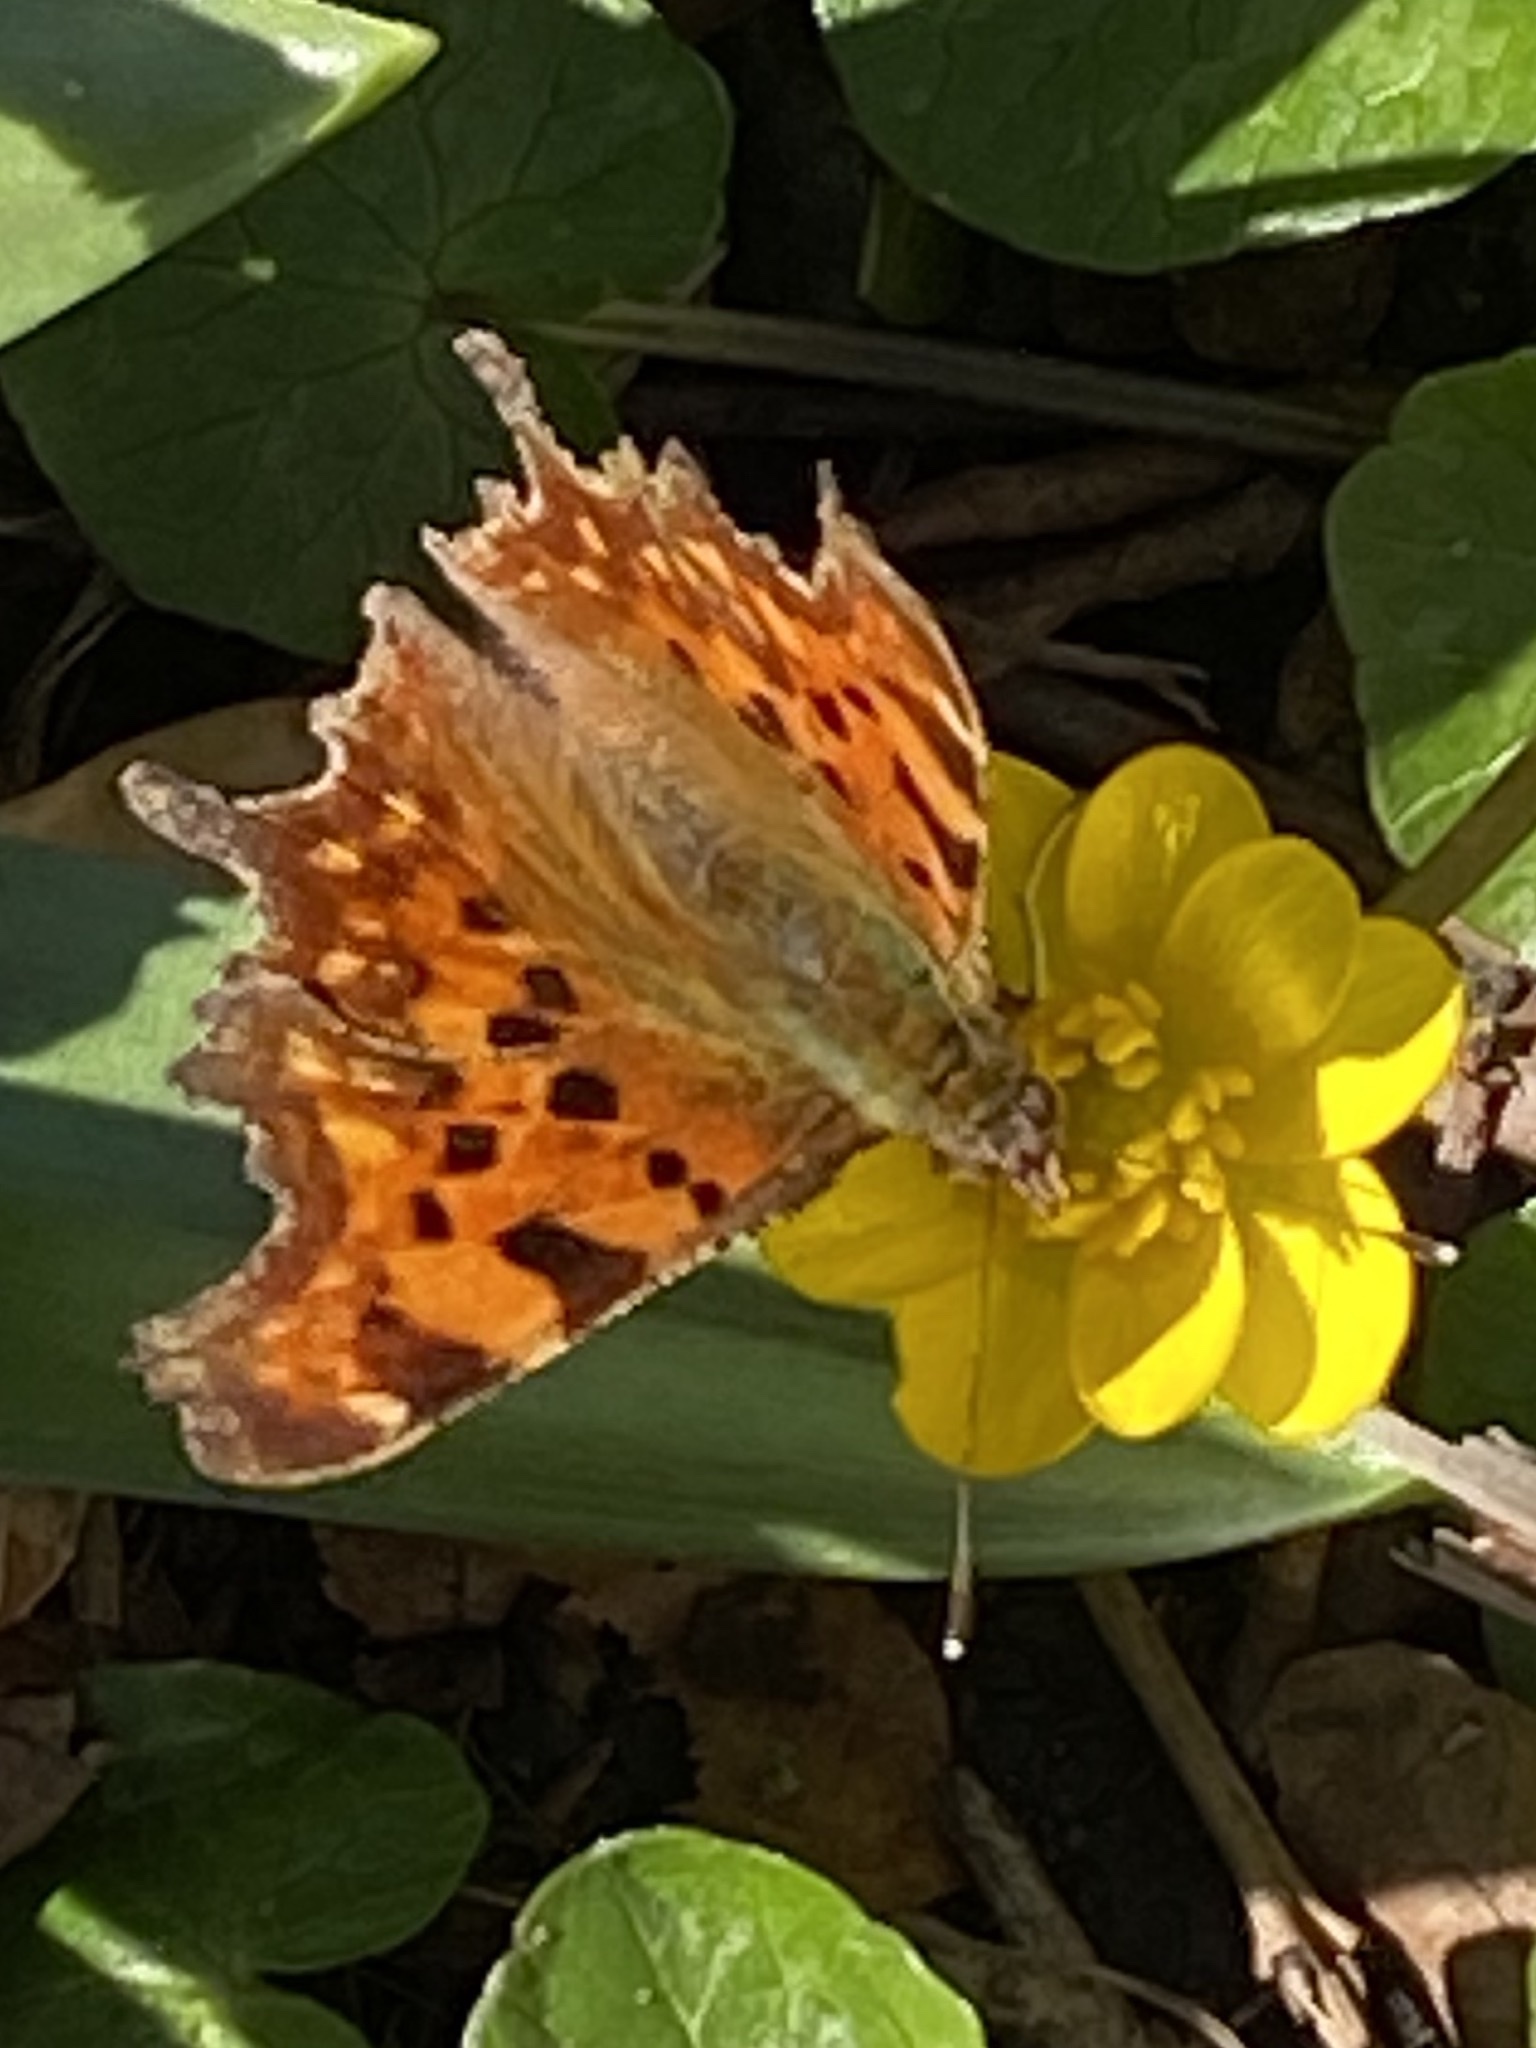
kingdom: Animalia
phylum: Arthropoda
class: Insecta
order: Lepidoptera
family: Nymphalidae
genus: Polygonia
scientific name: Polygonia c-album
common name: Comma
